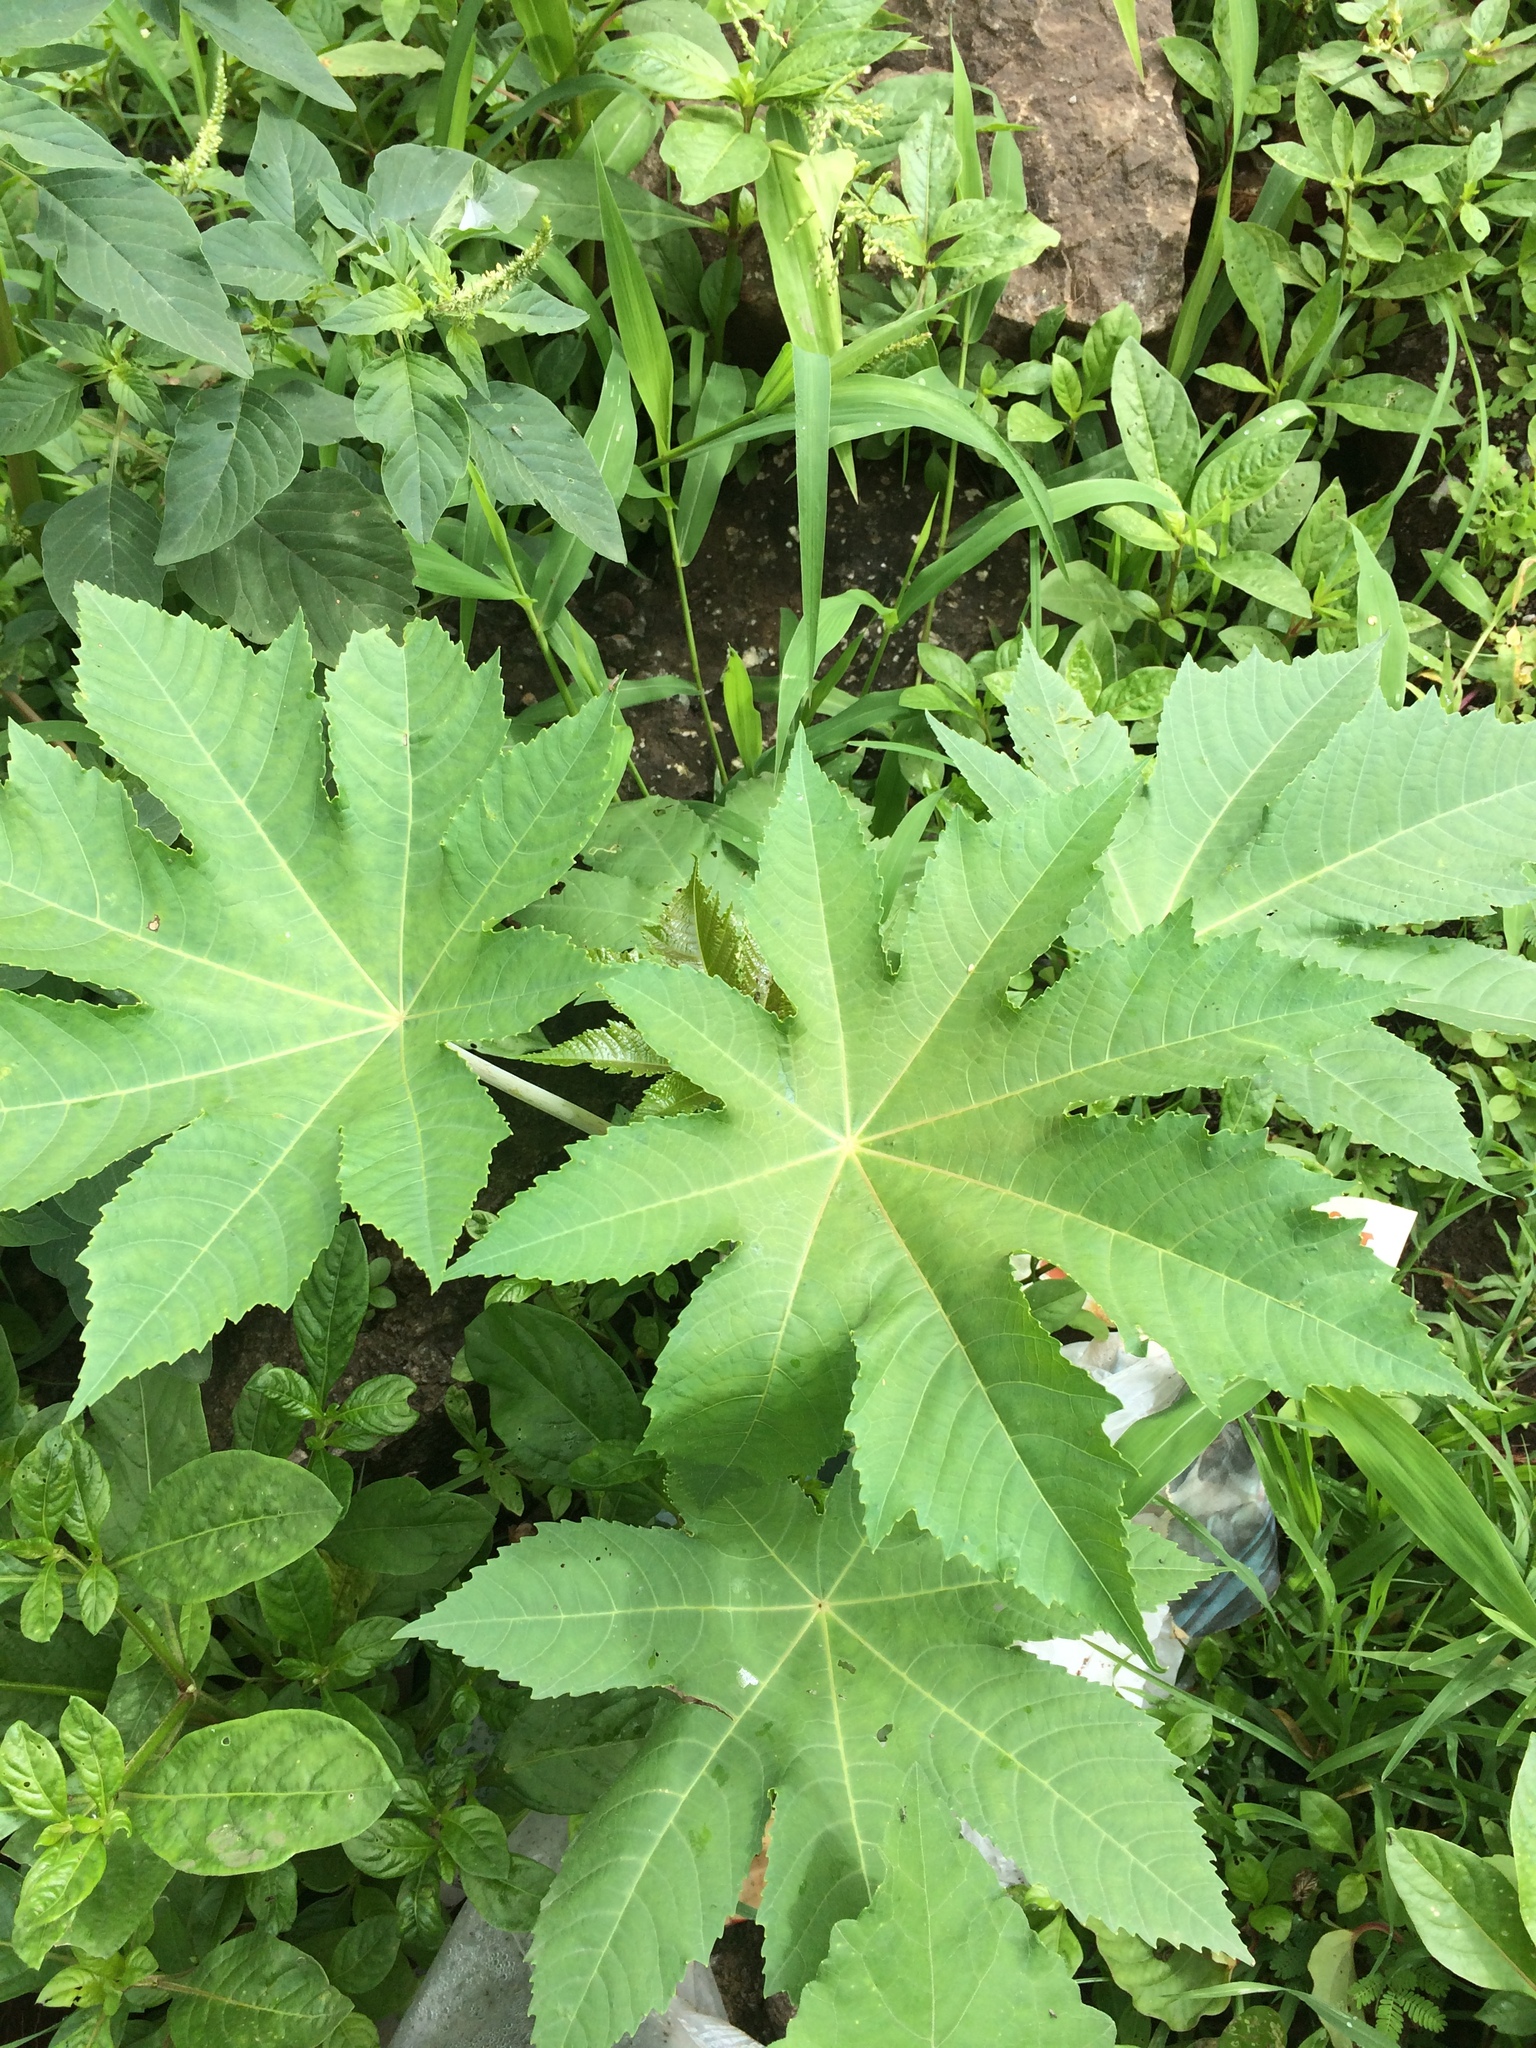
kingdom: Plantae
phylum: Tracheophyta
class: Magnoliopsida
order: Malpighiales
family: Euphorbiaceae
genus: Ricinus
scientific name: Ricinus communis
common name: Castor-oil-plant
